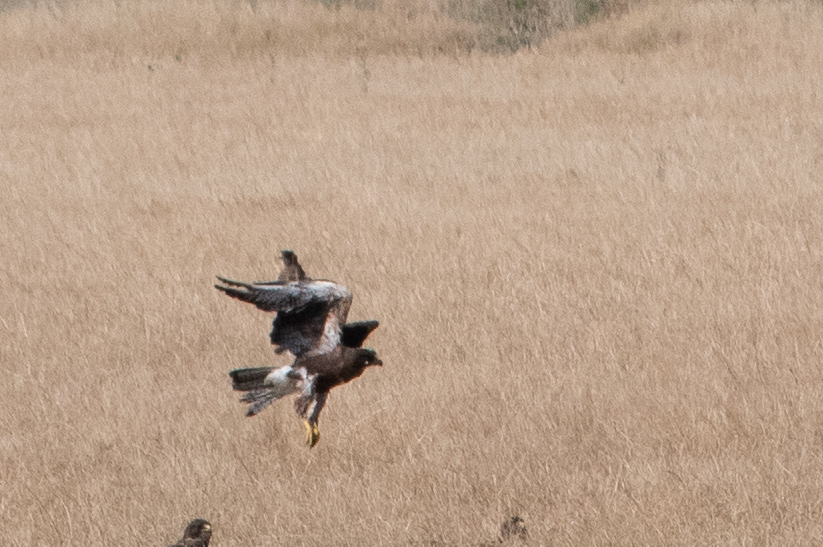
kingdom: Animalia
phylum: Chordata
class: Aves
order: Accipitriformes
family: Accipitridae
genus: Buteo
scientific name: Buteo swainsoni
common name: Swainson's hawk
